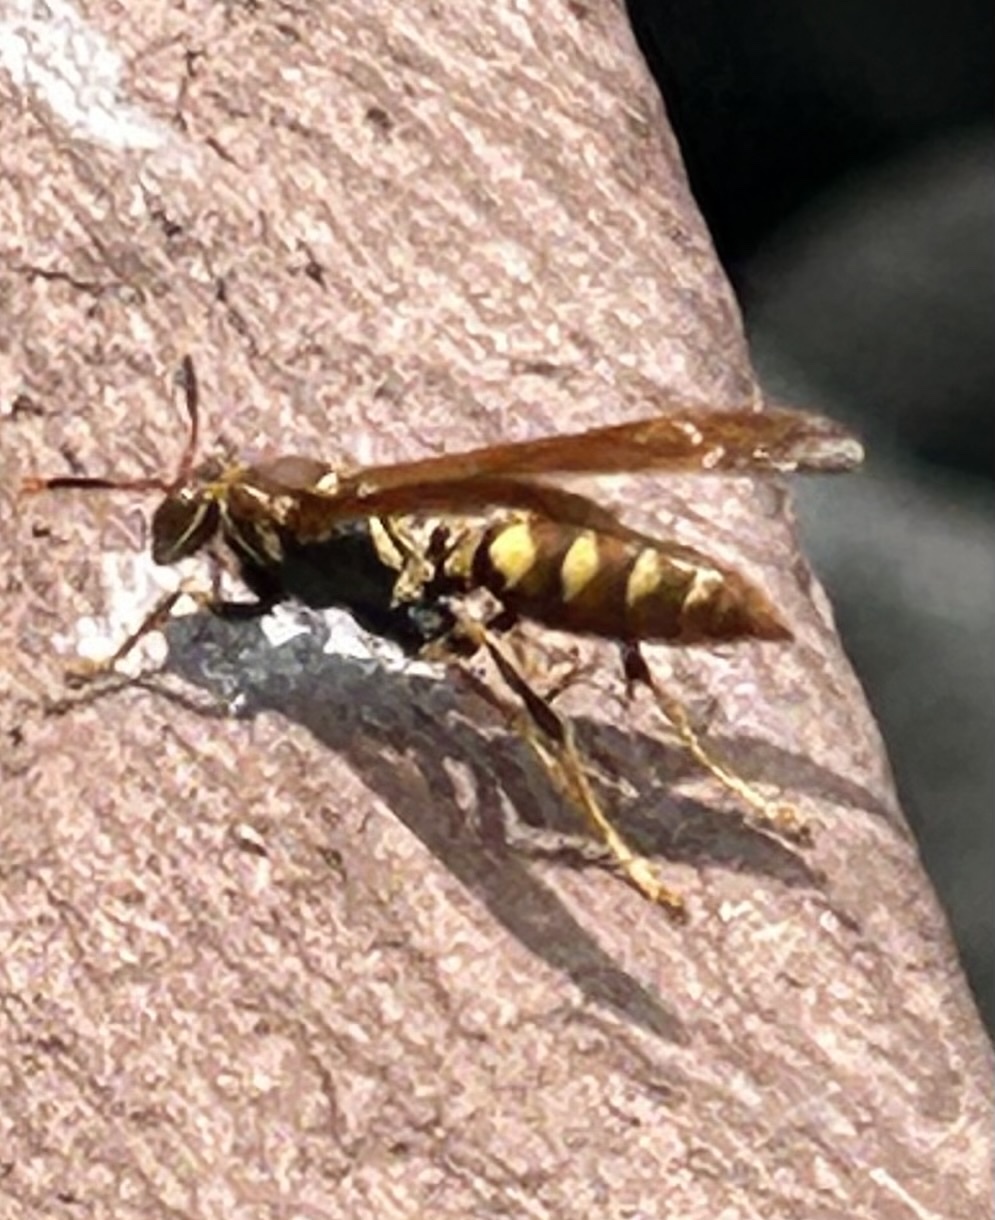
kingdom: Animalia
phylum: Arthropoda
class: Insecta
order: Hymenoptera
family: Eumenidae
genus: Polistes
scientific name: Polistes versicolor
